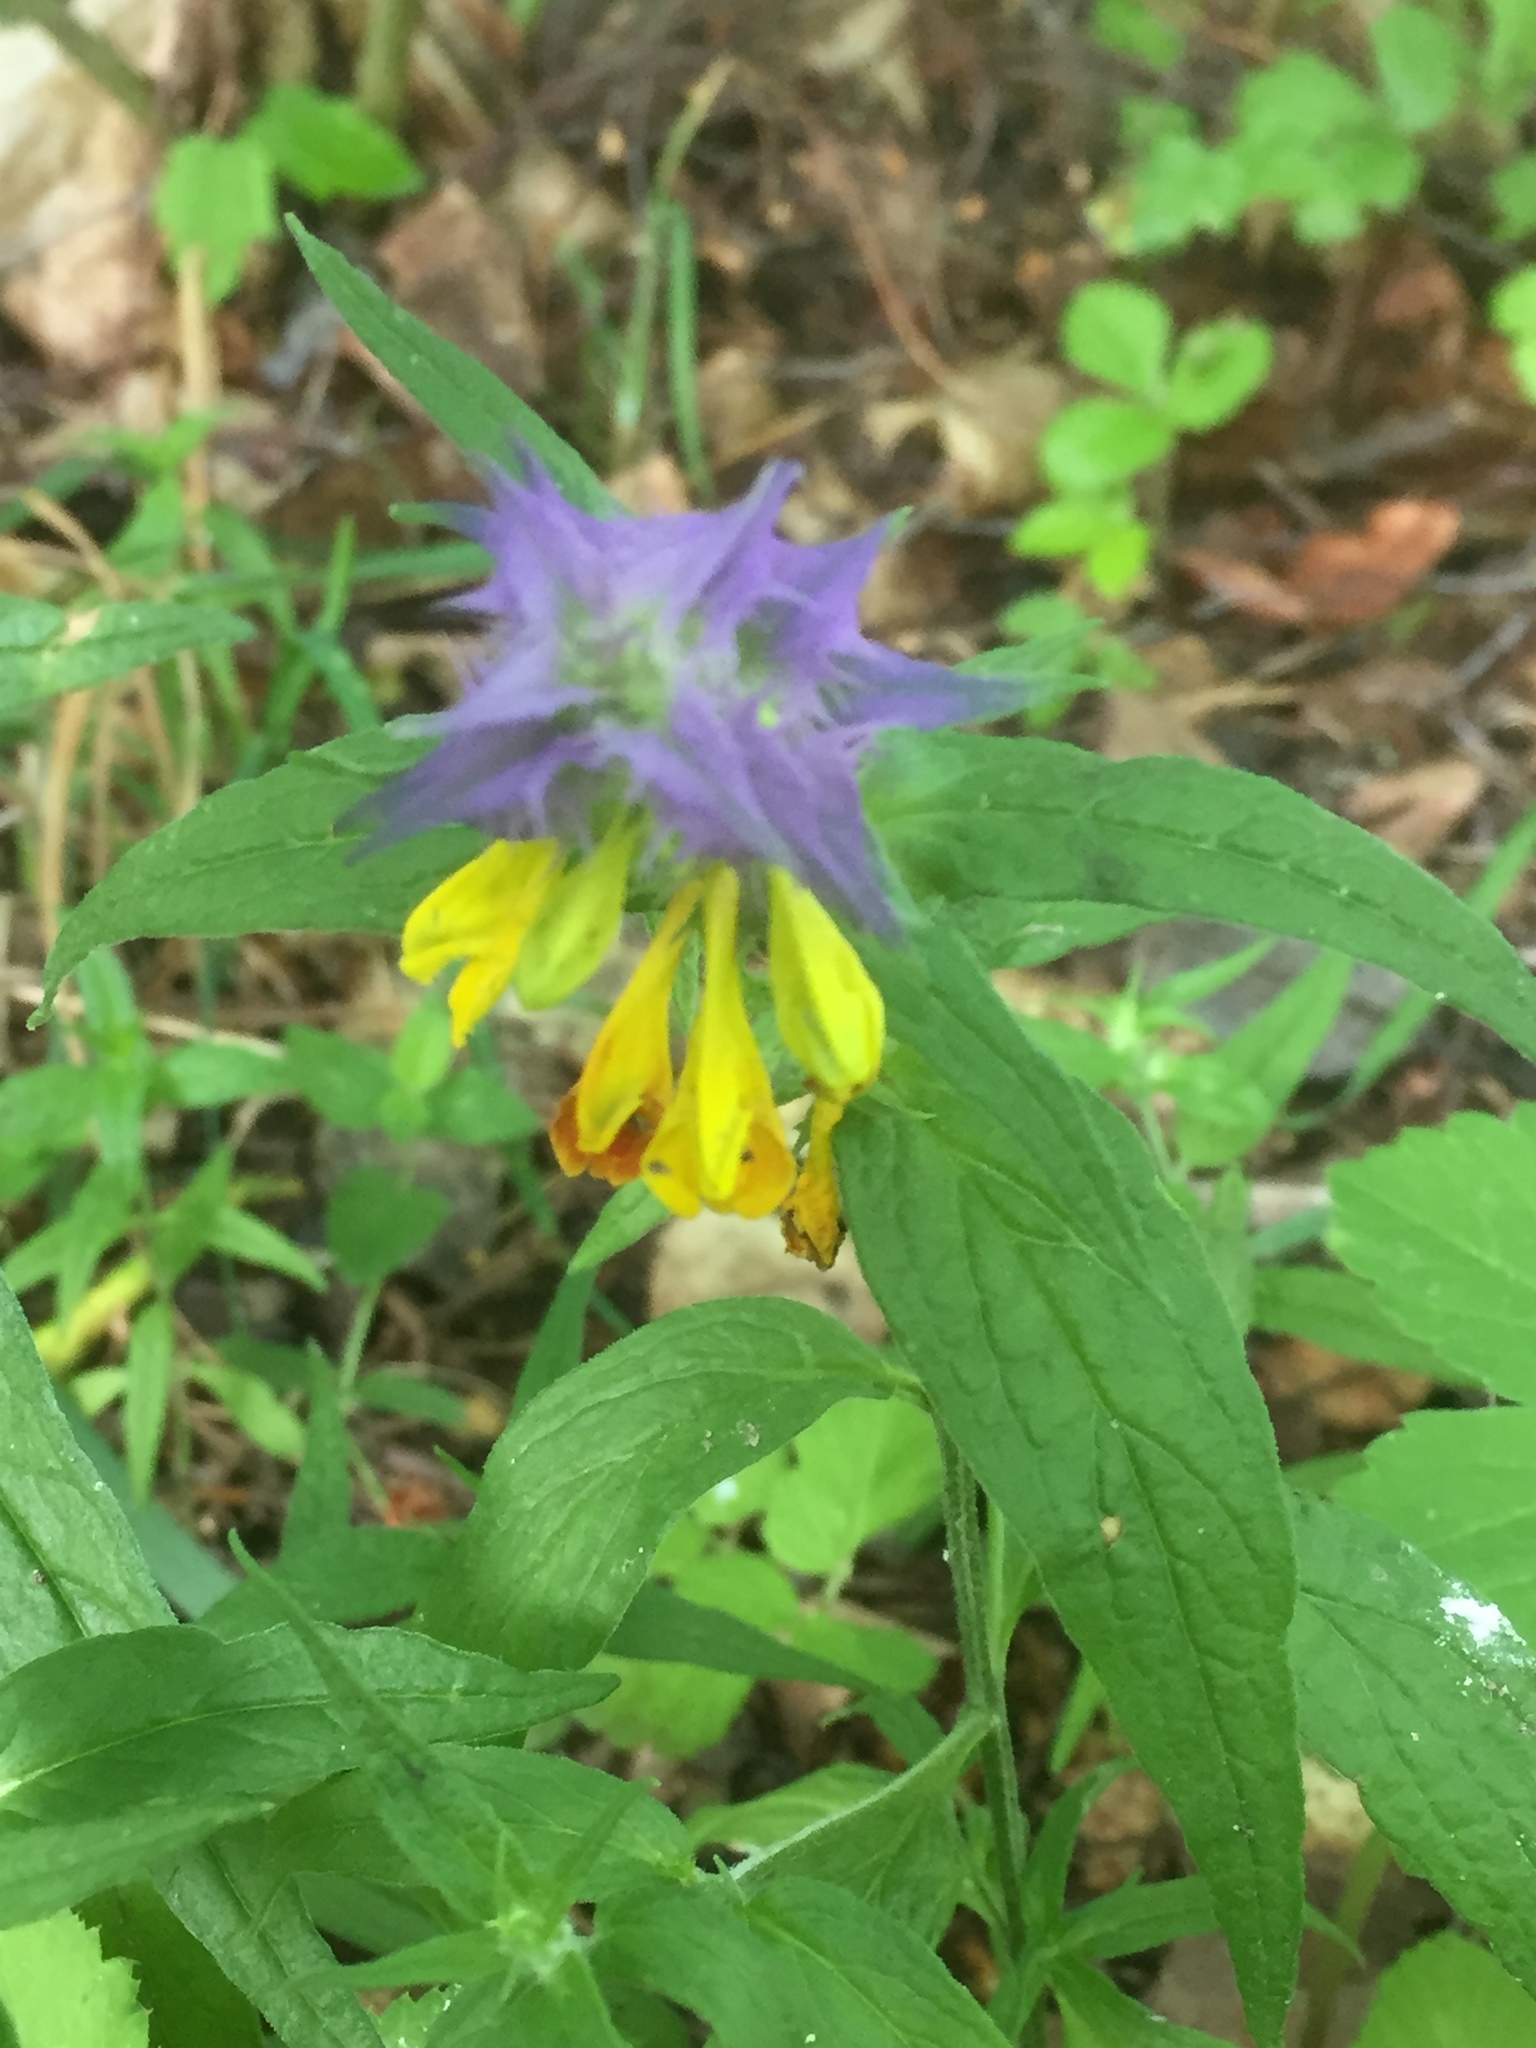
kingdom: Plantae
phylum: Tracheophyta
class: Magnoliopsida
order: Lamiales
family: Orobanchaceae
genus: Melampyrum
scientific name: Melampyrum nemorosum
